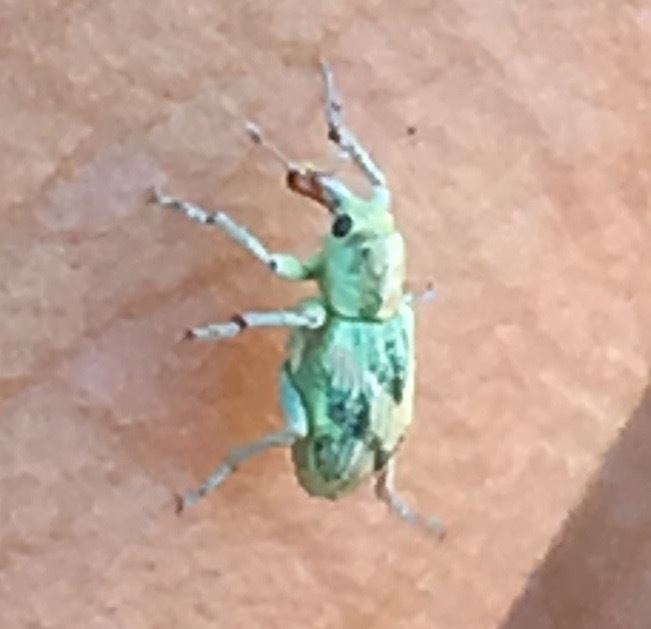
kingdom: Animalia
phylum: Arthropoda
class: Insecta
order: Coleoptera
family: Curculionidae
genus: Coniatus
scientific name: Coniatus splendidulus
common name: Splendid tamarisk weevil
